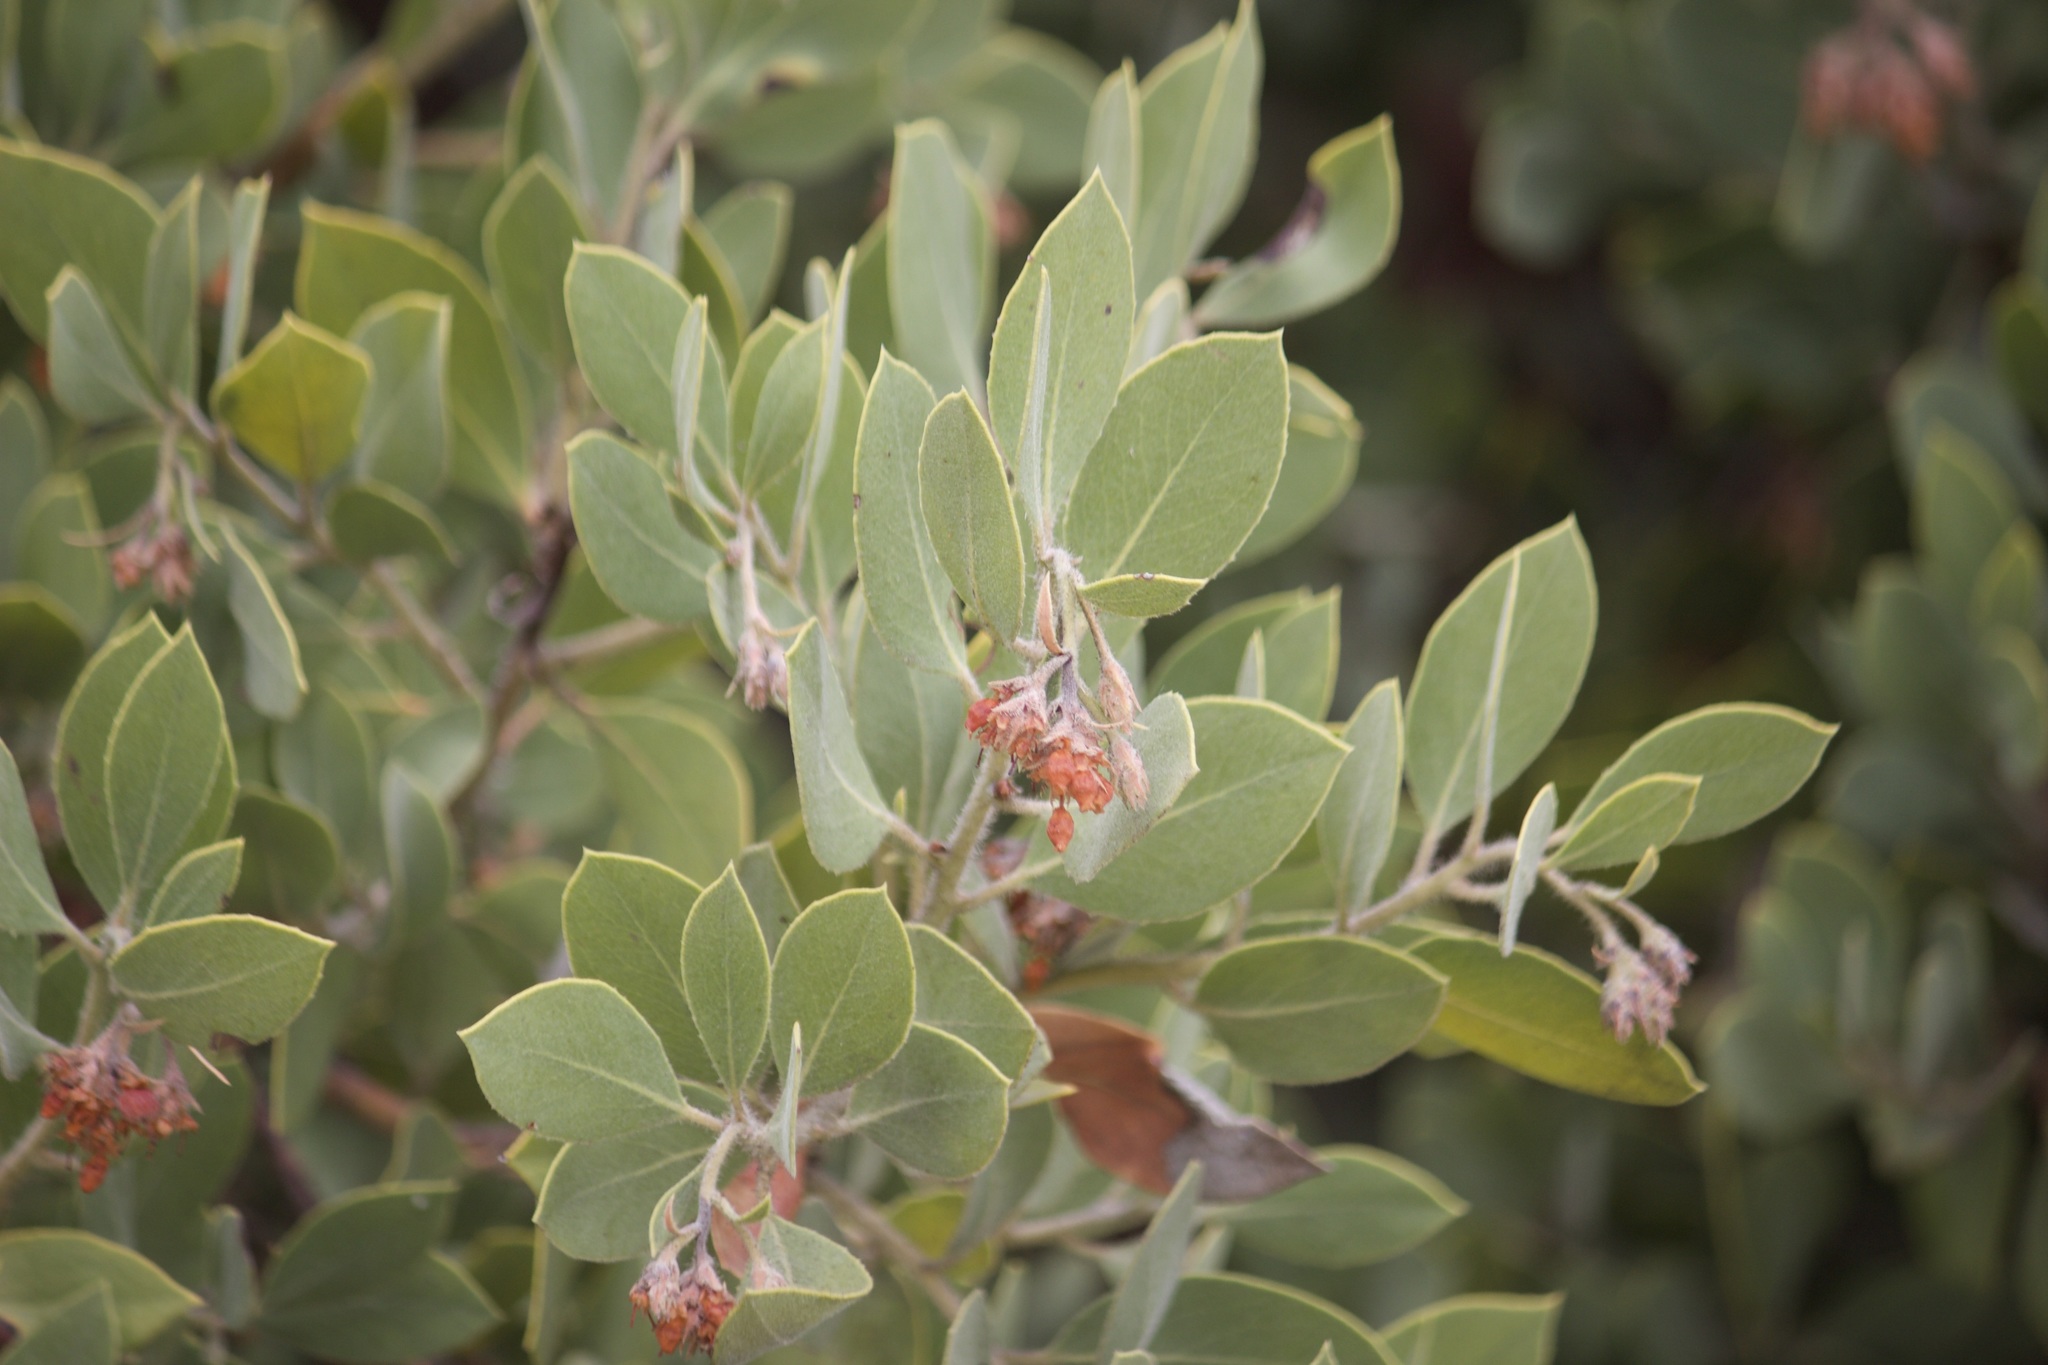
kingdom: Plantae
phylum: Tracheophyta
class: Magnoliopsida
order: Ericales
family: Ericaceae
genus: Arctostaphylos
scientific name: Arctostaphylos glandulosa
